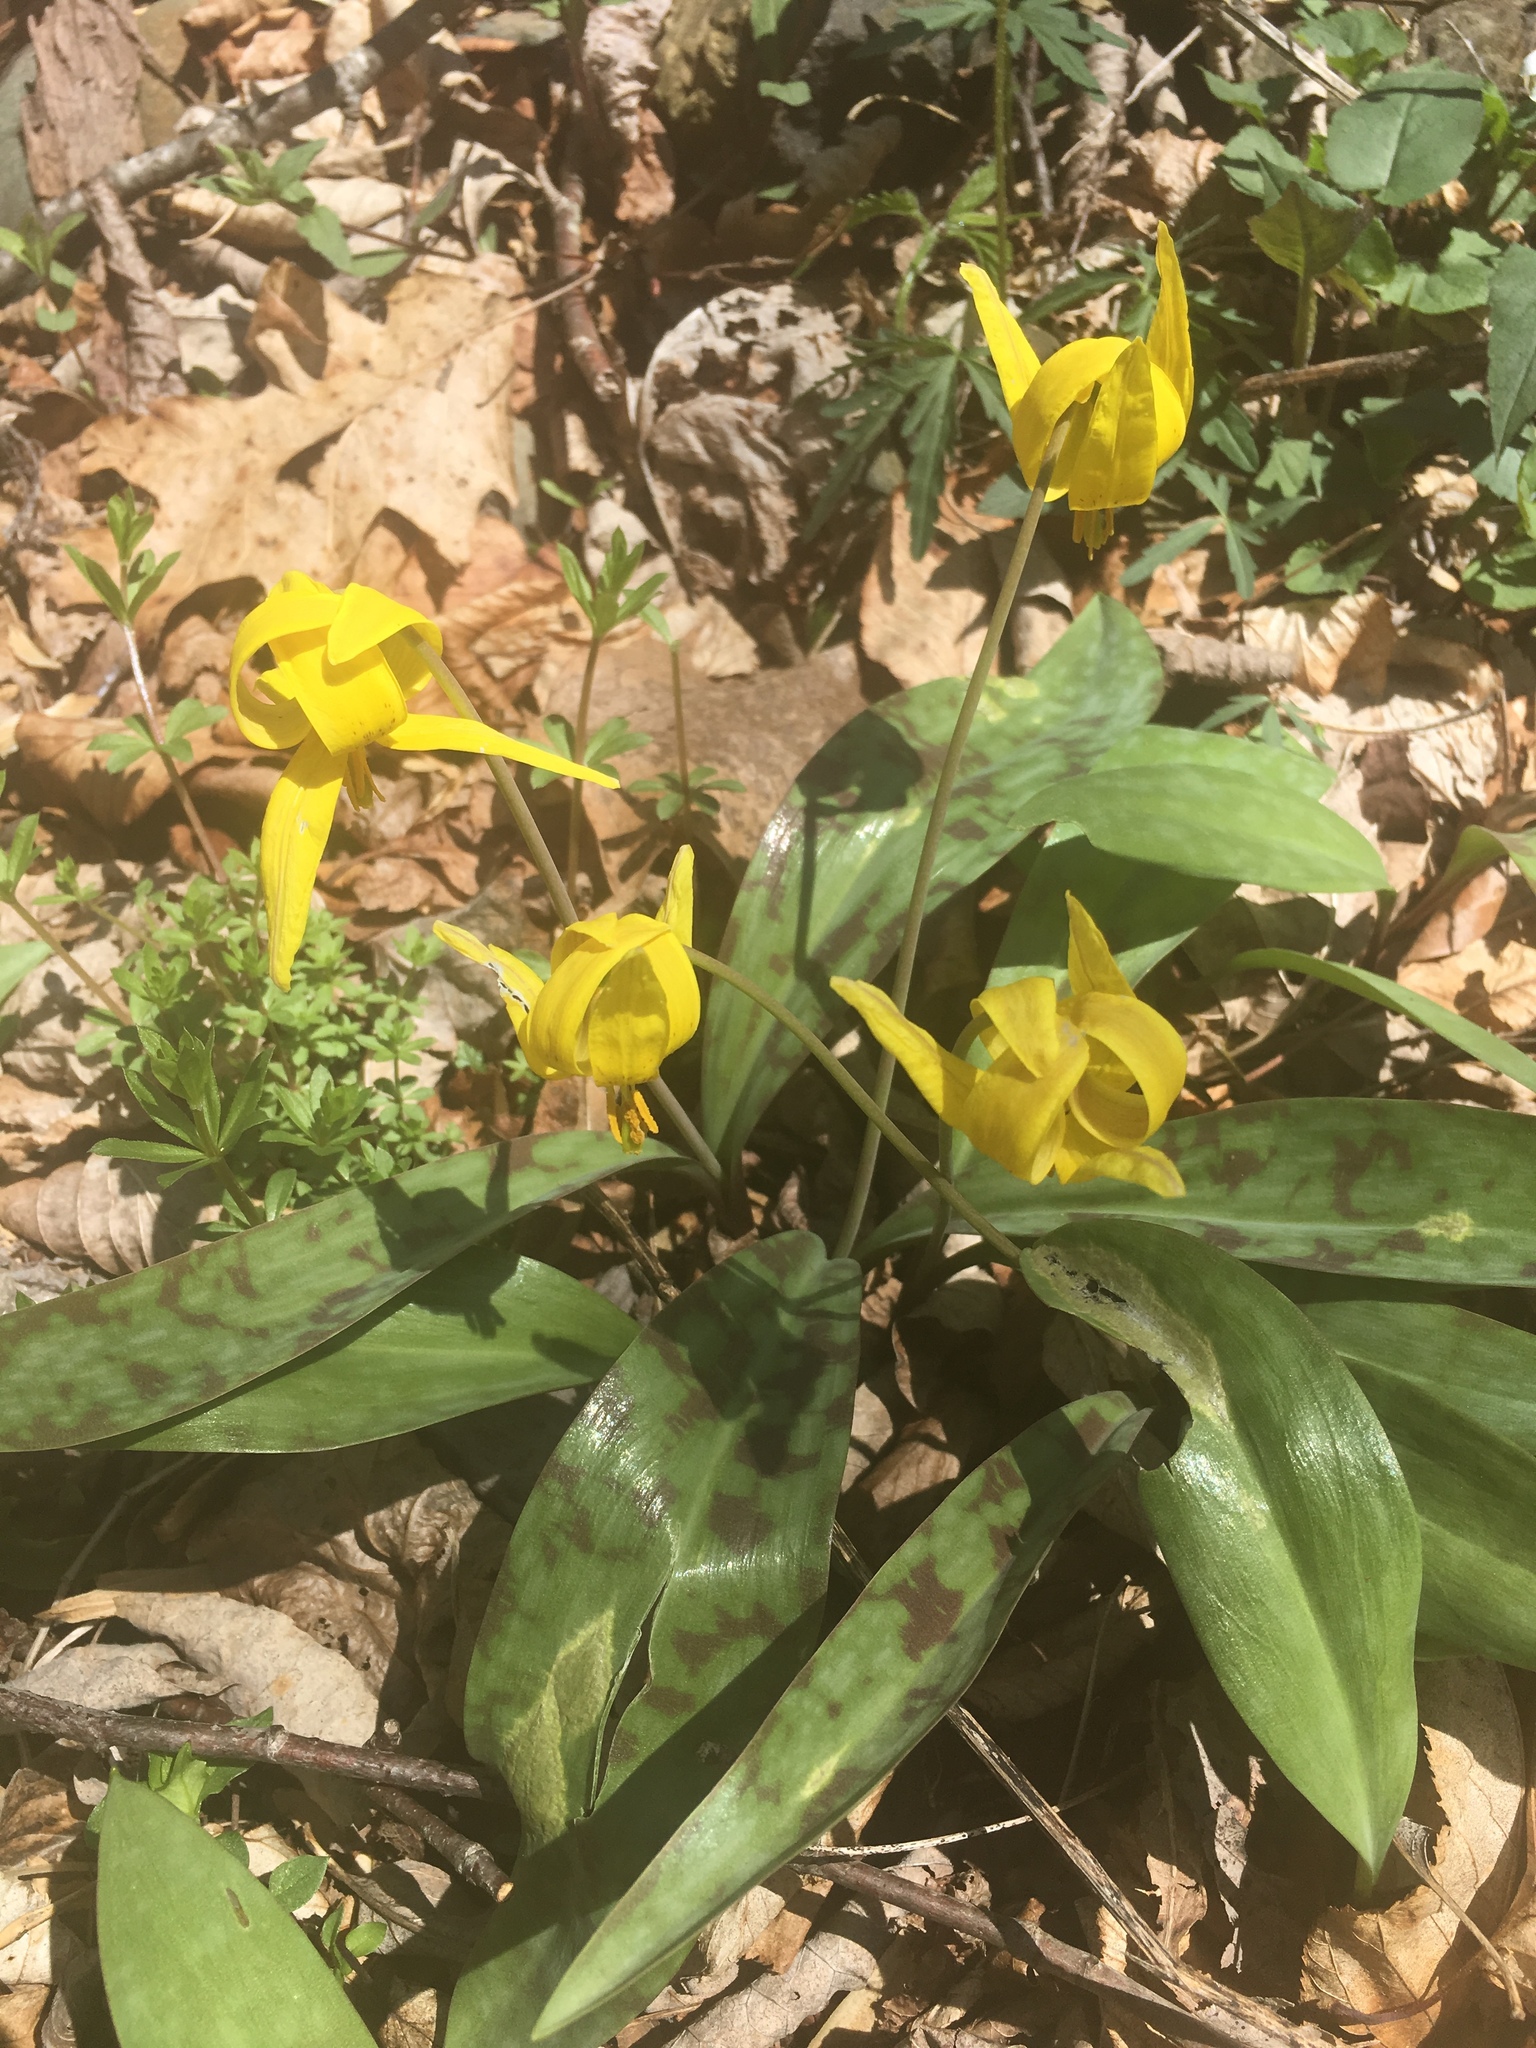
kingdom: Plantae
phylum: Tracheophyta
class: Liliopsida
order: Liliales
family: Liliaceae
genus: Erythronium
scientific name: Erythronium americanum
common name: Yellow adder's-tongue
